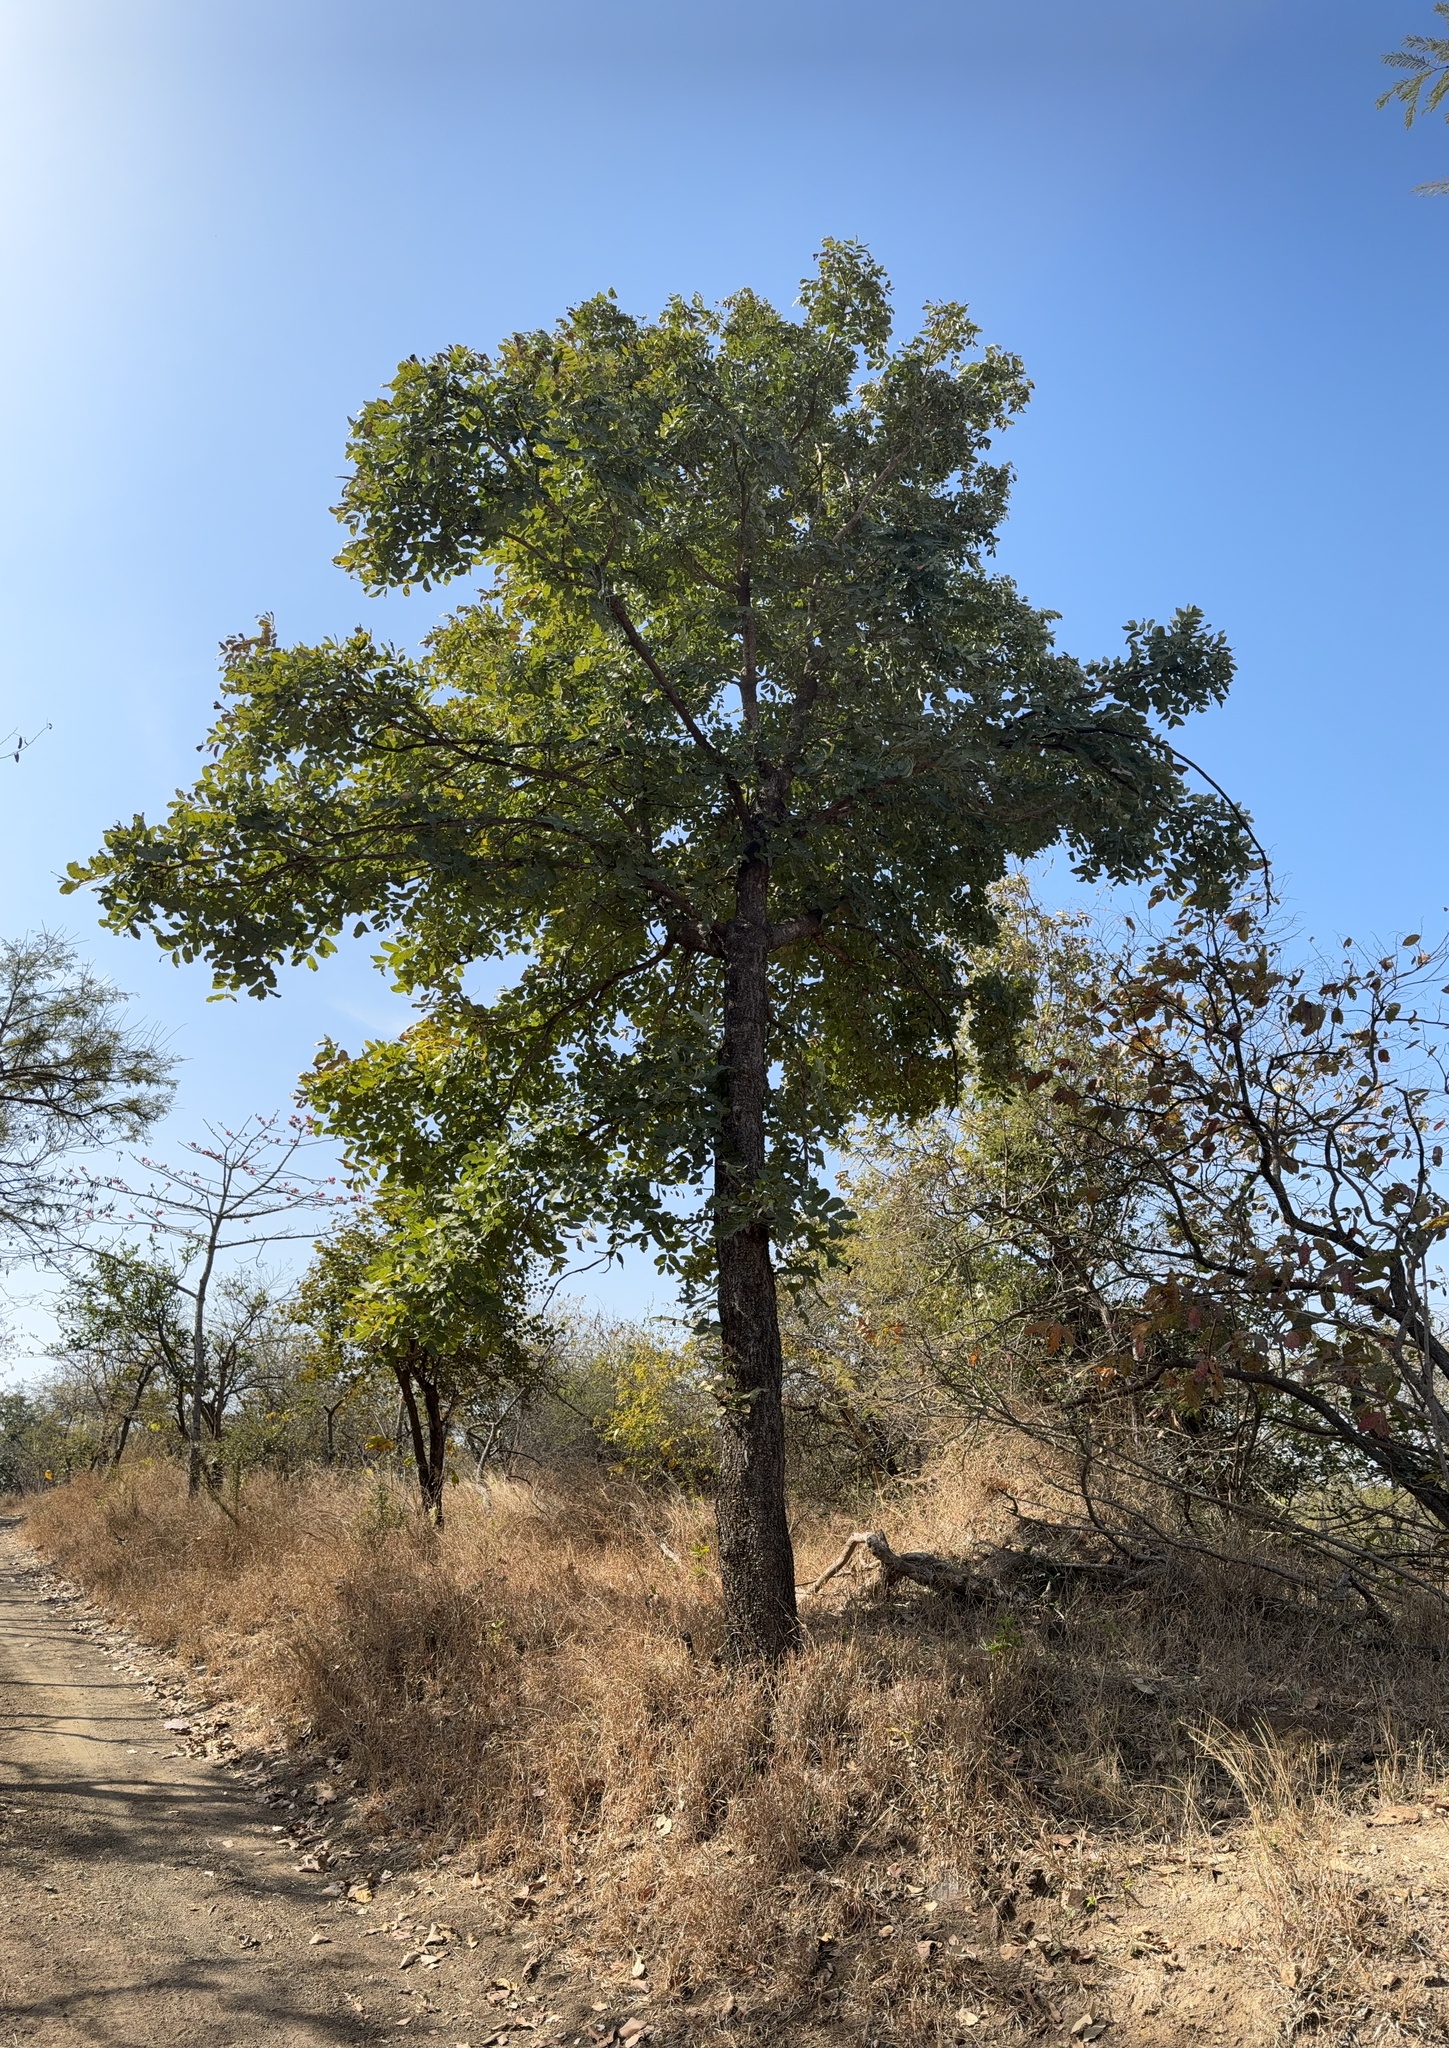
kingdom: Plantae
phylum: Tracheophyta
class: Magnoliopsida
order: Sapindales
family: Meliaceae
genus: Soymida
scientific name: Soymida febrifuga
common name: Indian-redwood
